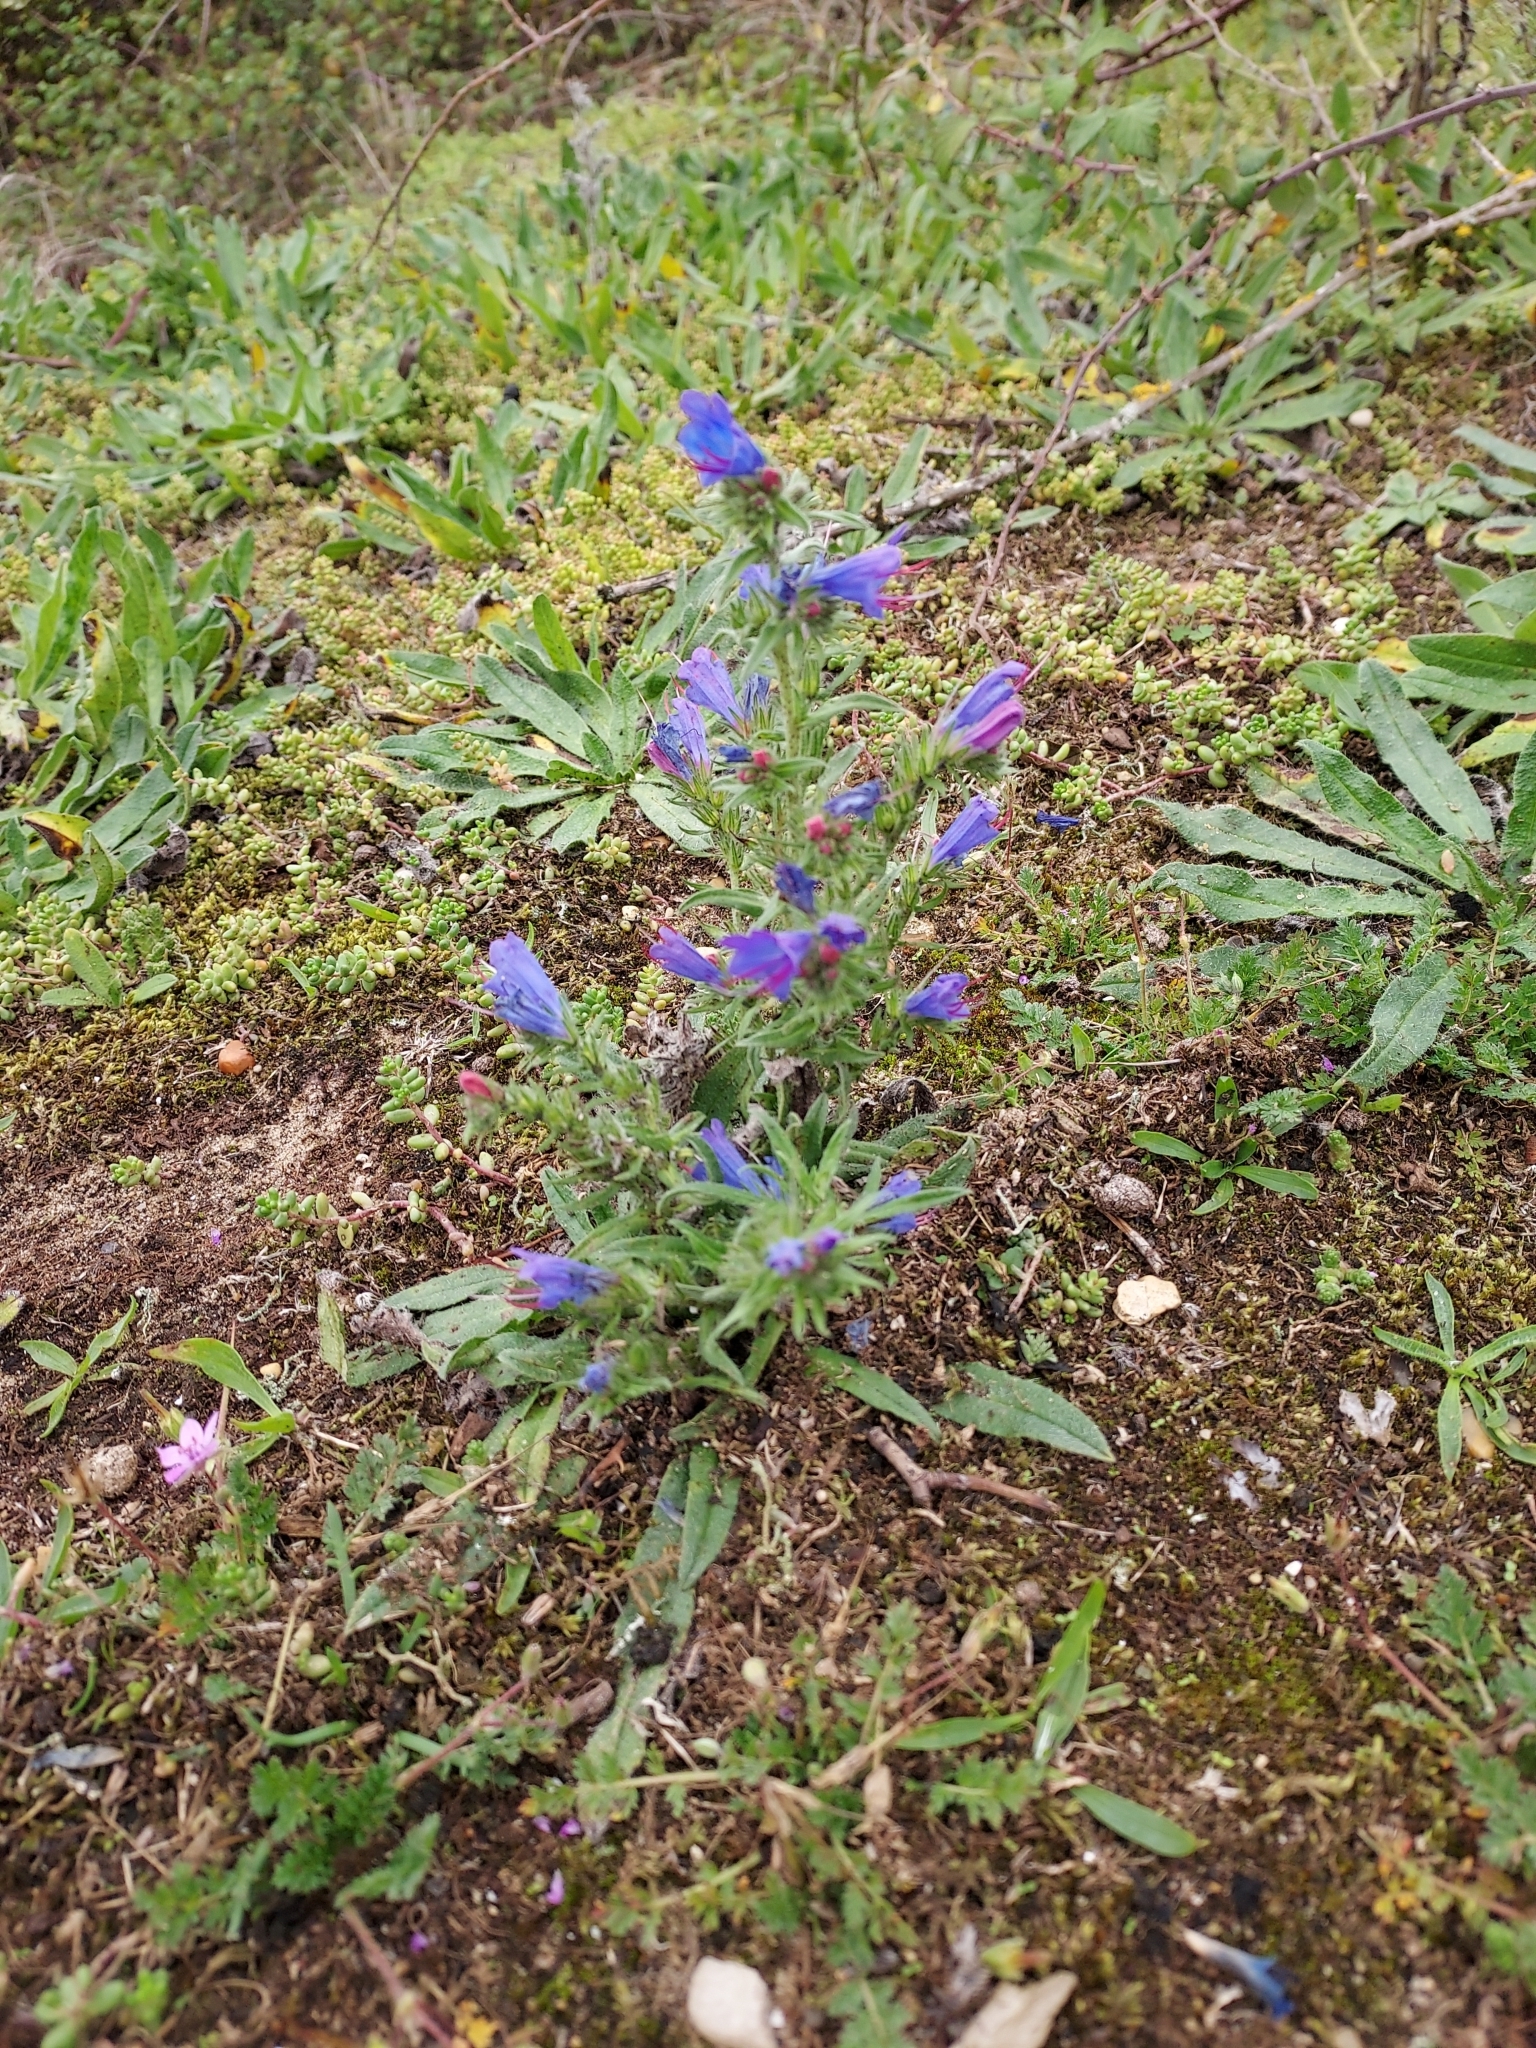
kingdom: Plantae
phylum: Tracheophyta
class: Magnoliopsida
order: Boraginales
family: Boraginaceae
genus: Echium
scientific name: Echium vulgare
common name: Common viper's bugloss
